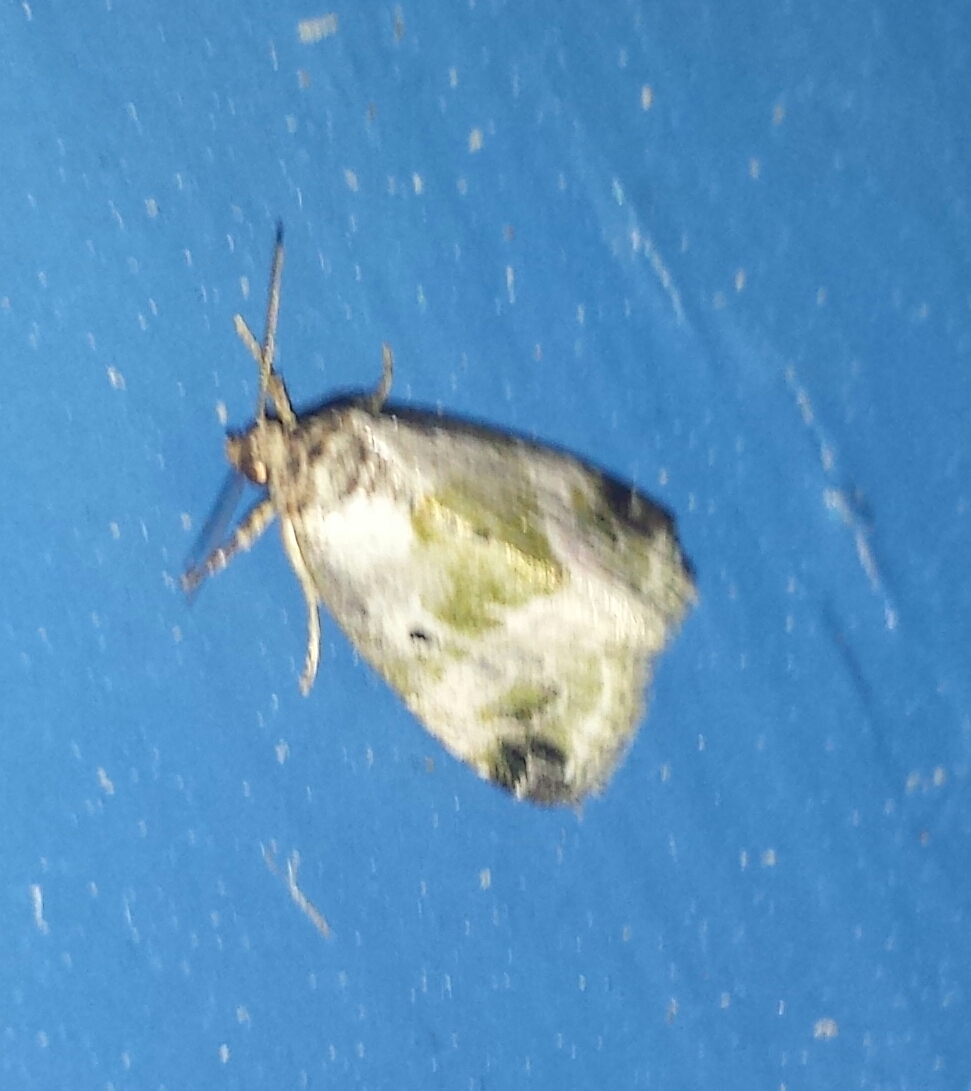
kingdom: Animalia
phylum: Arthropoda
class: Insecta
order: Lepidoptera
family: Noctuidae
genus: Maliattha
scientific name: Maliattha synochitis
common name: Black-dotted glyph
